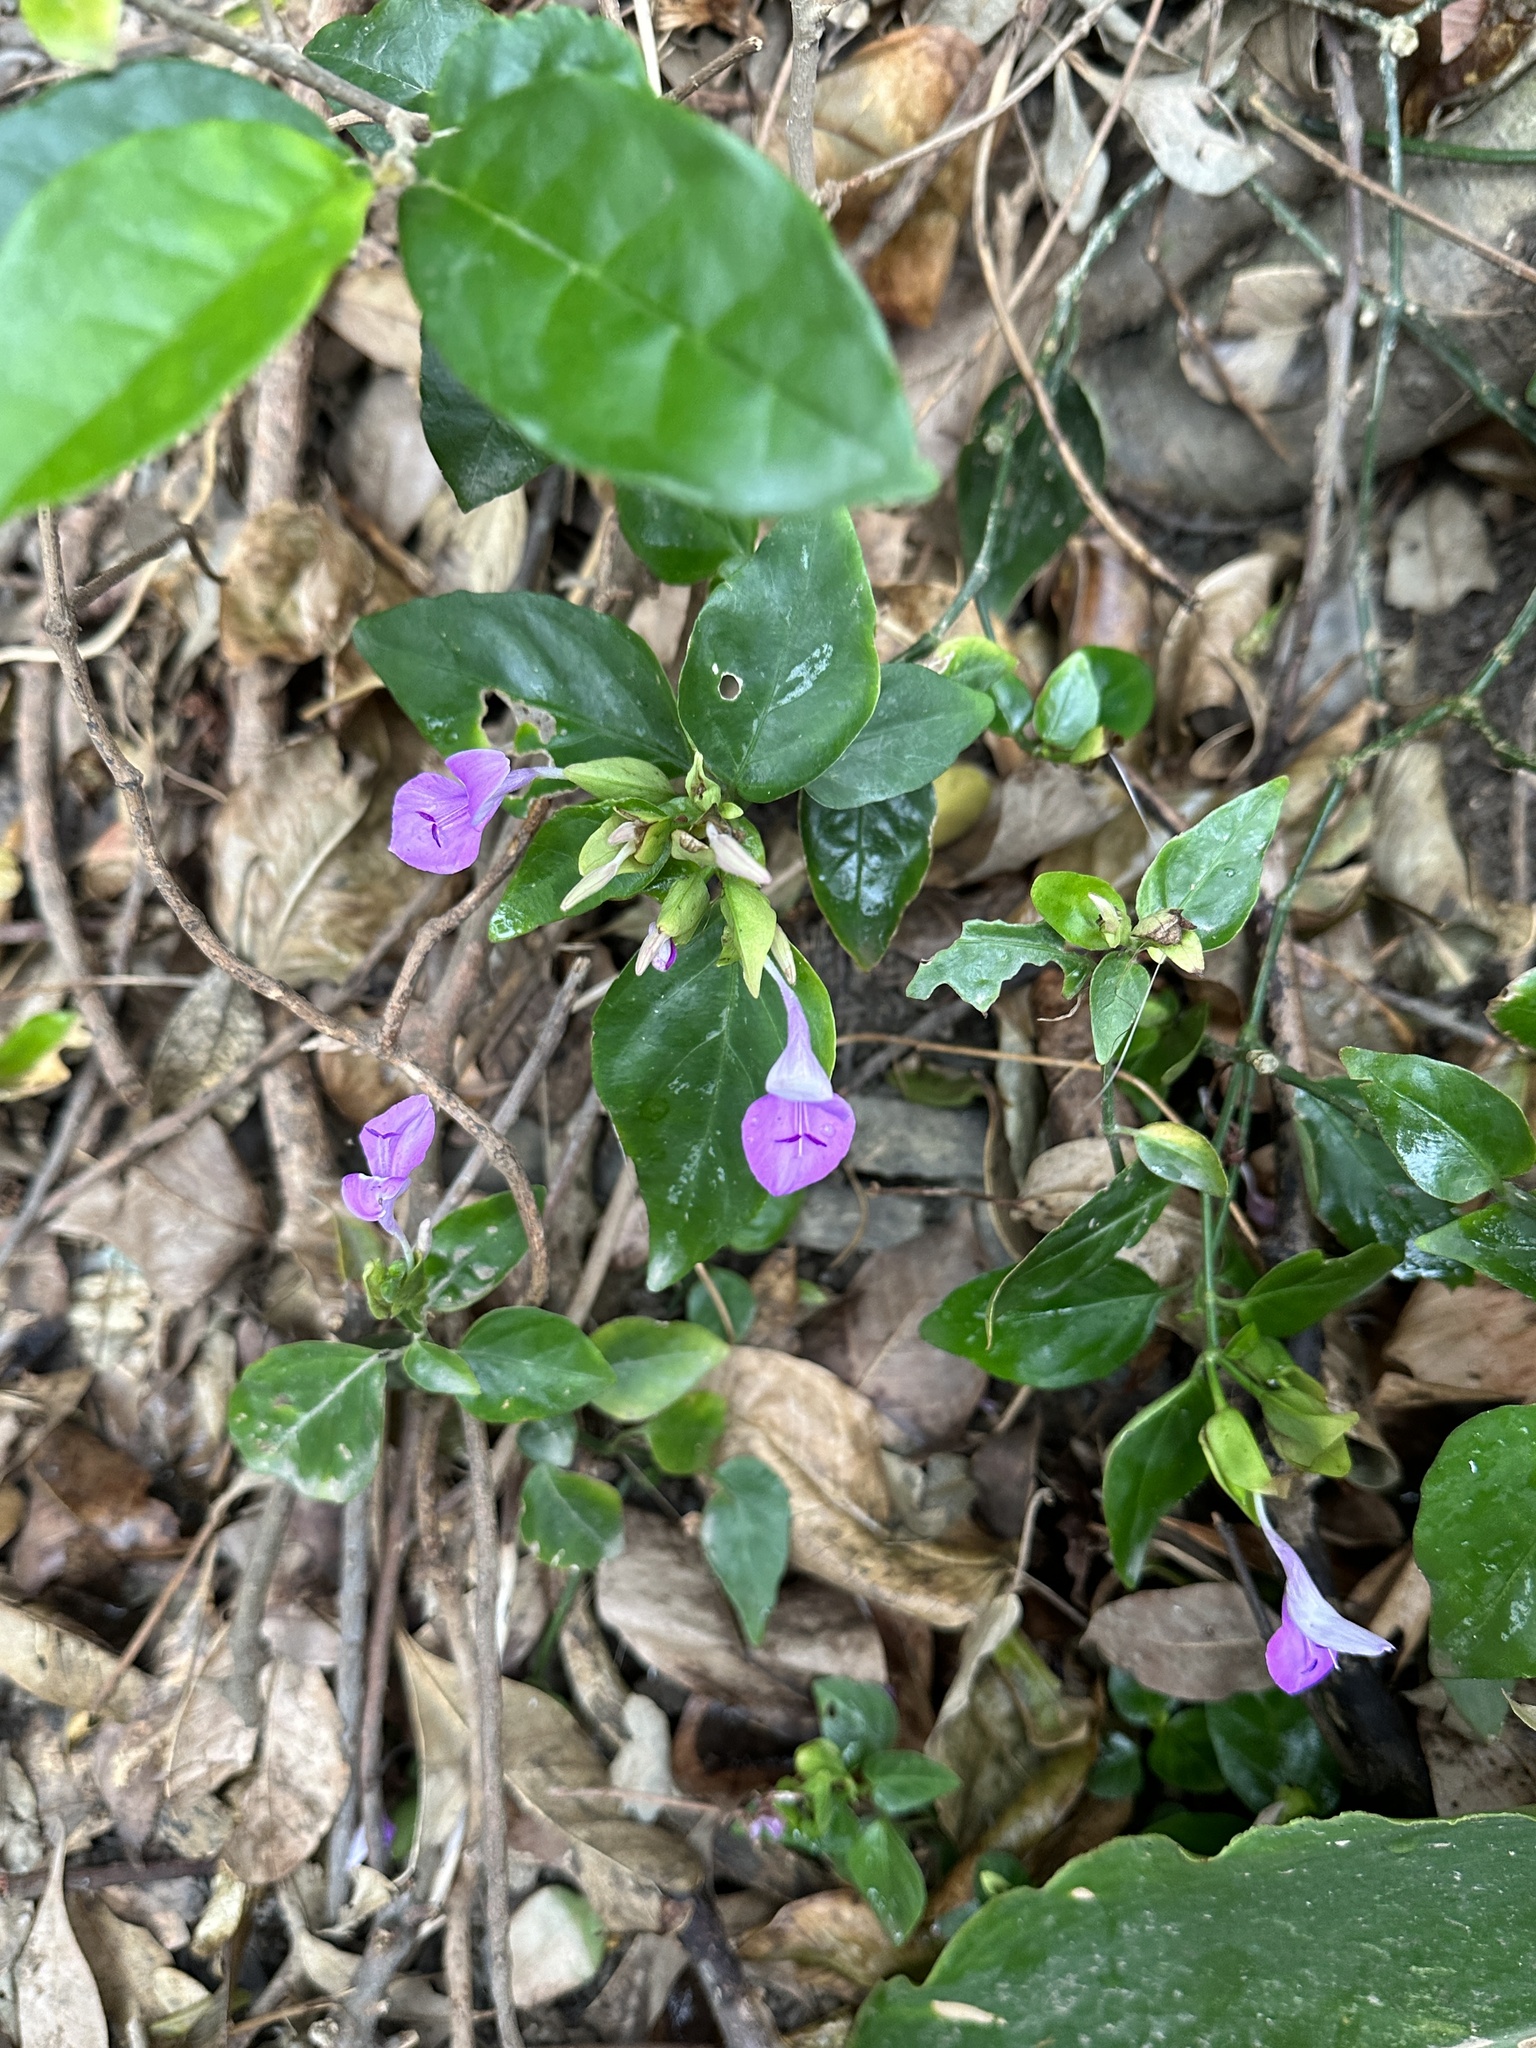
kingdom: Plantae
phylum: Tracheophyta
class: Magnoliopsida
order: Lamiales
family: Acanthaceae
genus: Dicliptera
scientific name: Dicliptera tinctoria
